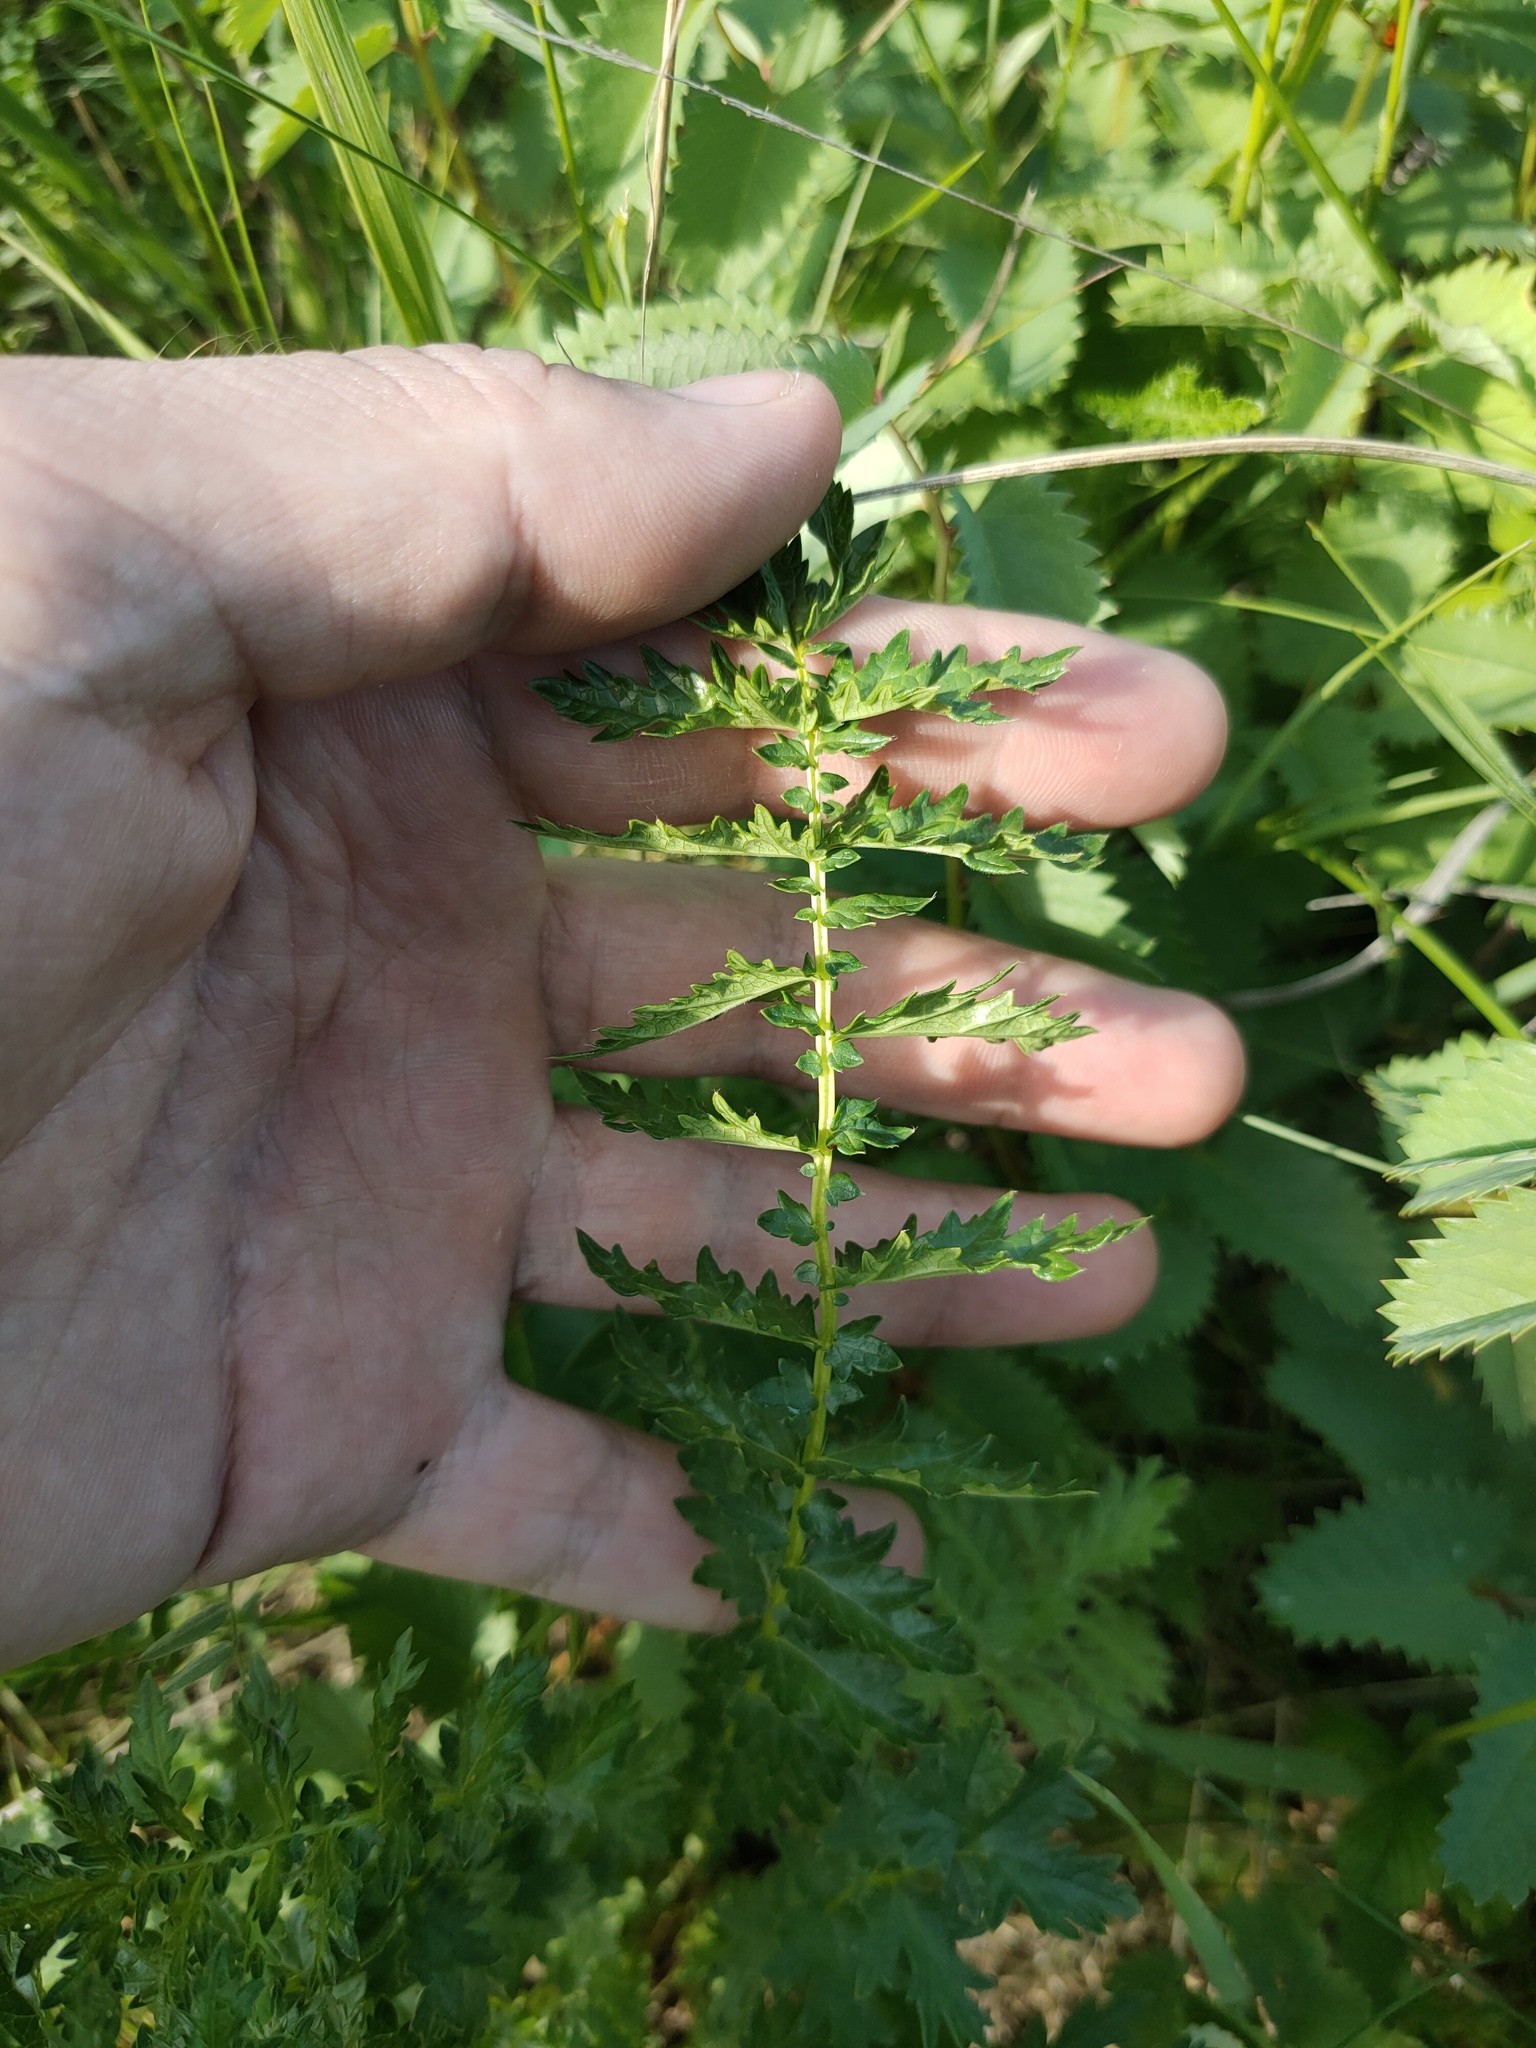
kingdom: Plantae
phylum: Tracheophyta
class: Magnoliopsida
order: Rosales
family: Rosaceae
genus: Filipendula
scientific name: Filipendula vulgaris
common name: Dropwort
